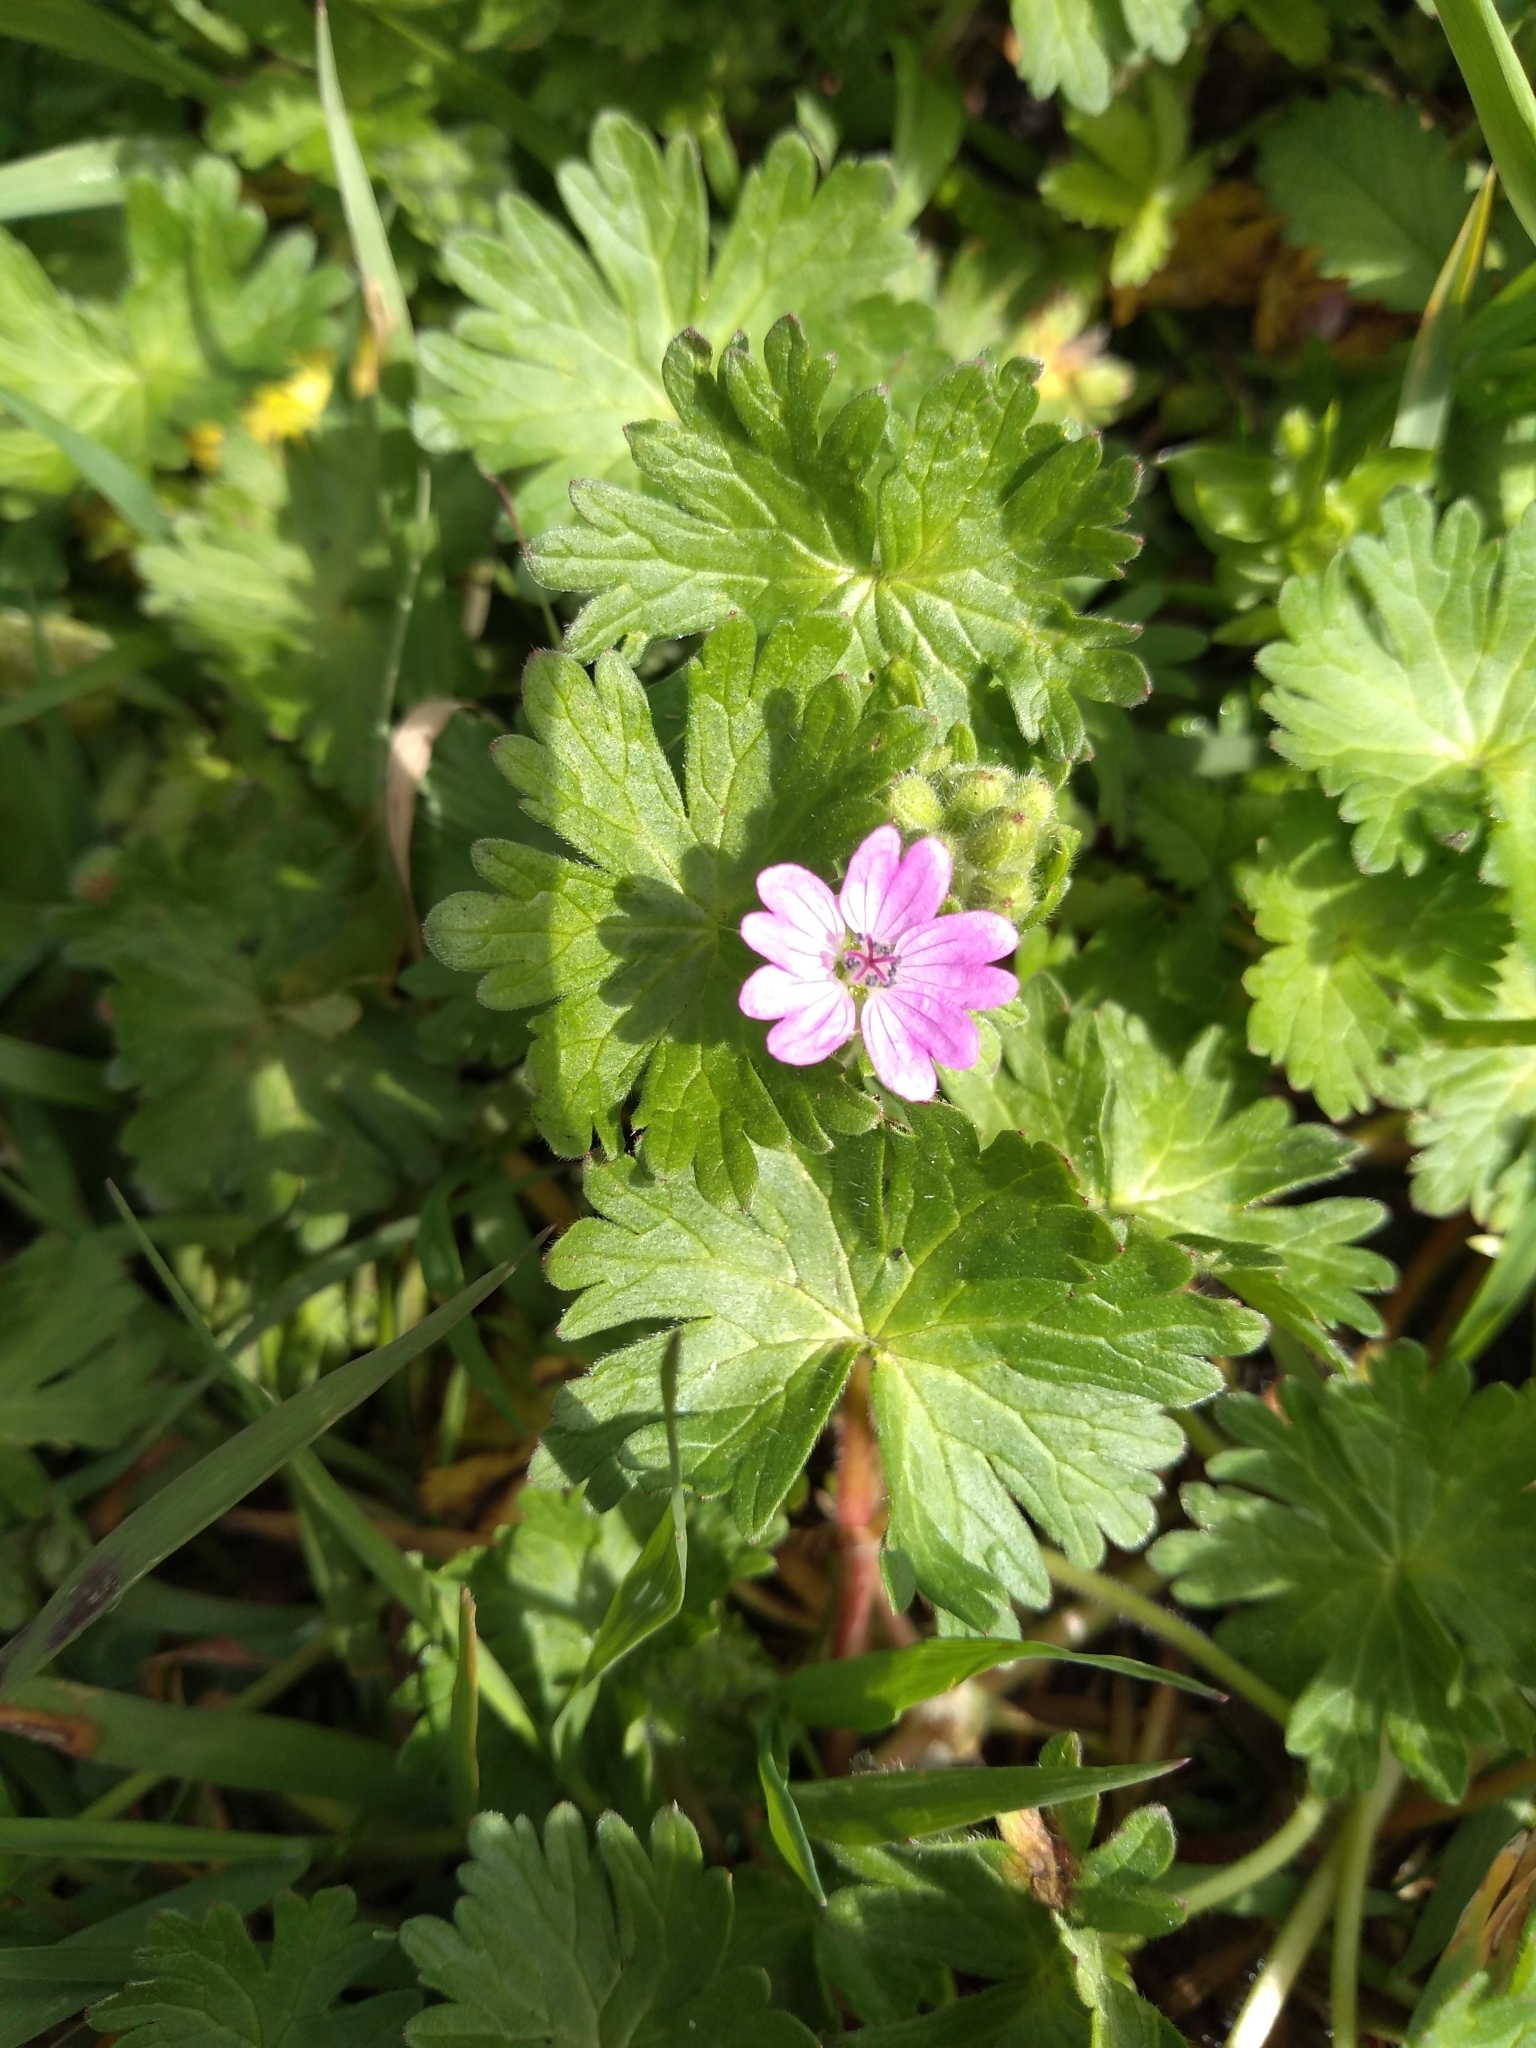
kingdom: Plantae
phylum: Tracheophyta
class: Magnoliopsida
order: Geraniales
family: Geraniaceae
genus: Geranium
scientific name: Geranium molle
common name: Dove's-foot crane's-bill
